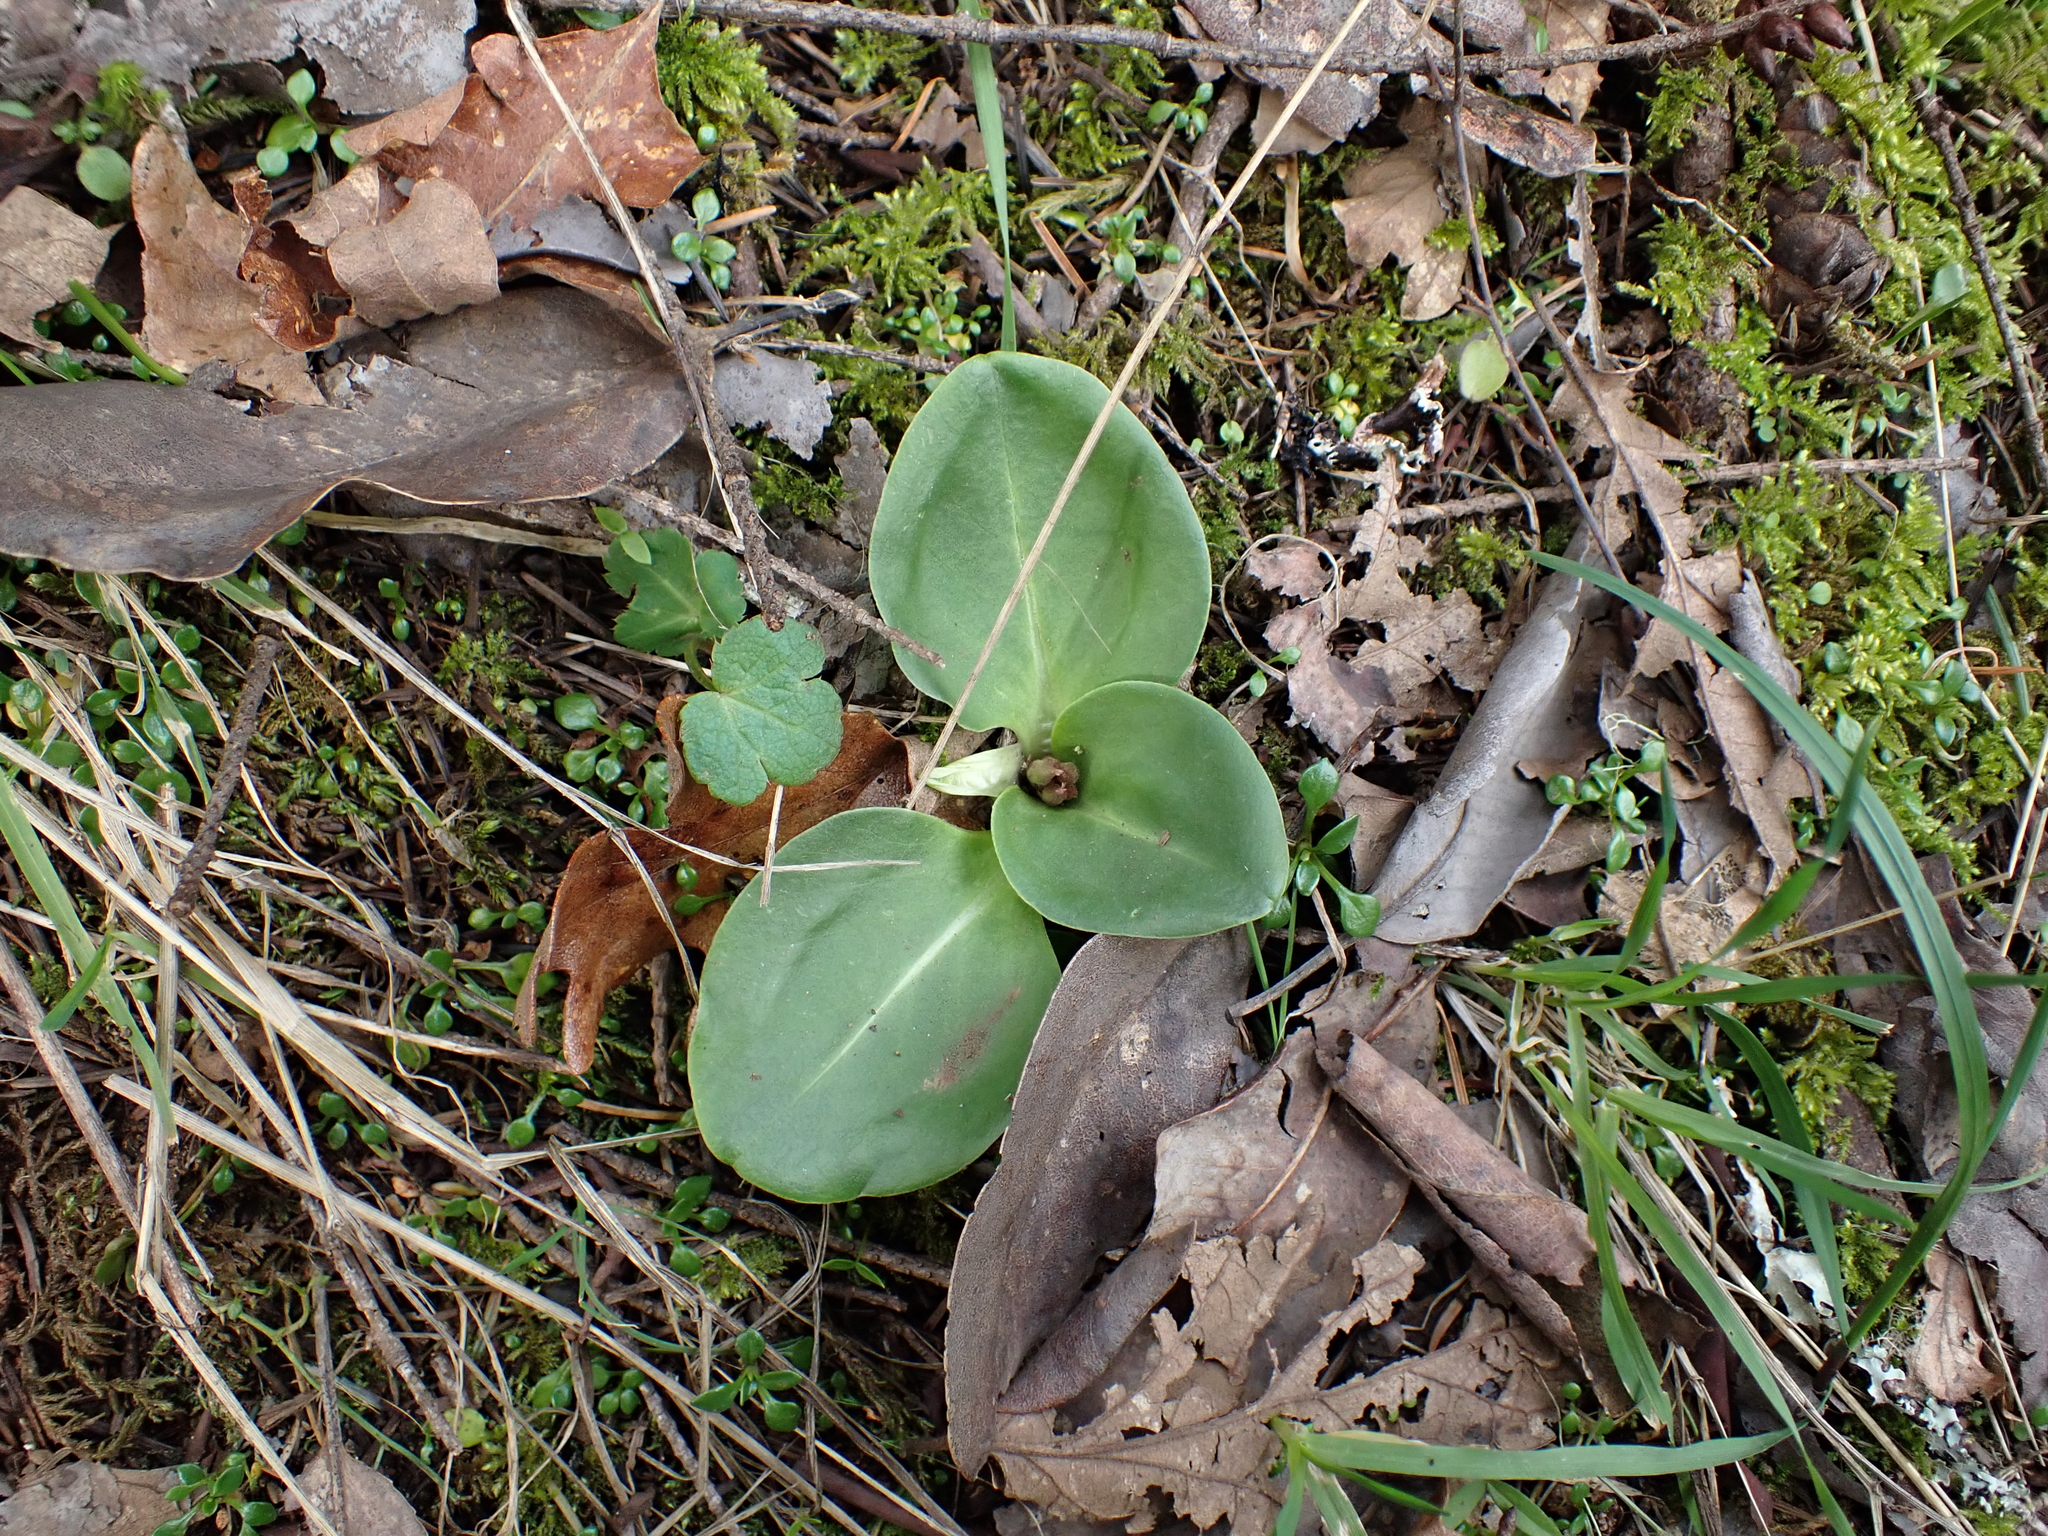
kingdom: Plantae
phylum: Tracheophyta
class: Magnoliopsida
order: Ericales
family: Primulaceae
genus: Dodecatheon
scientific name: Dodecatheon hendersonii
